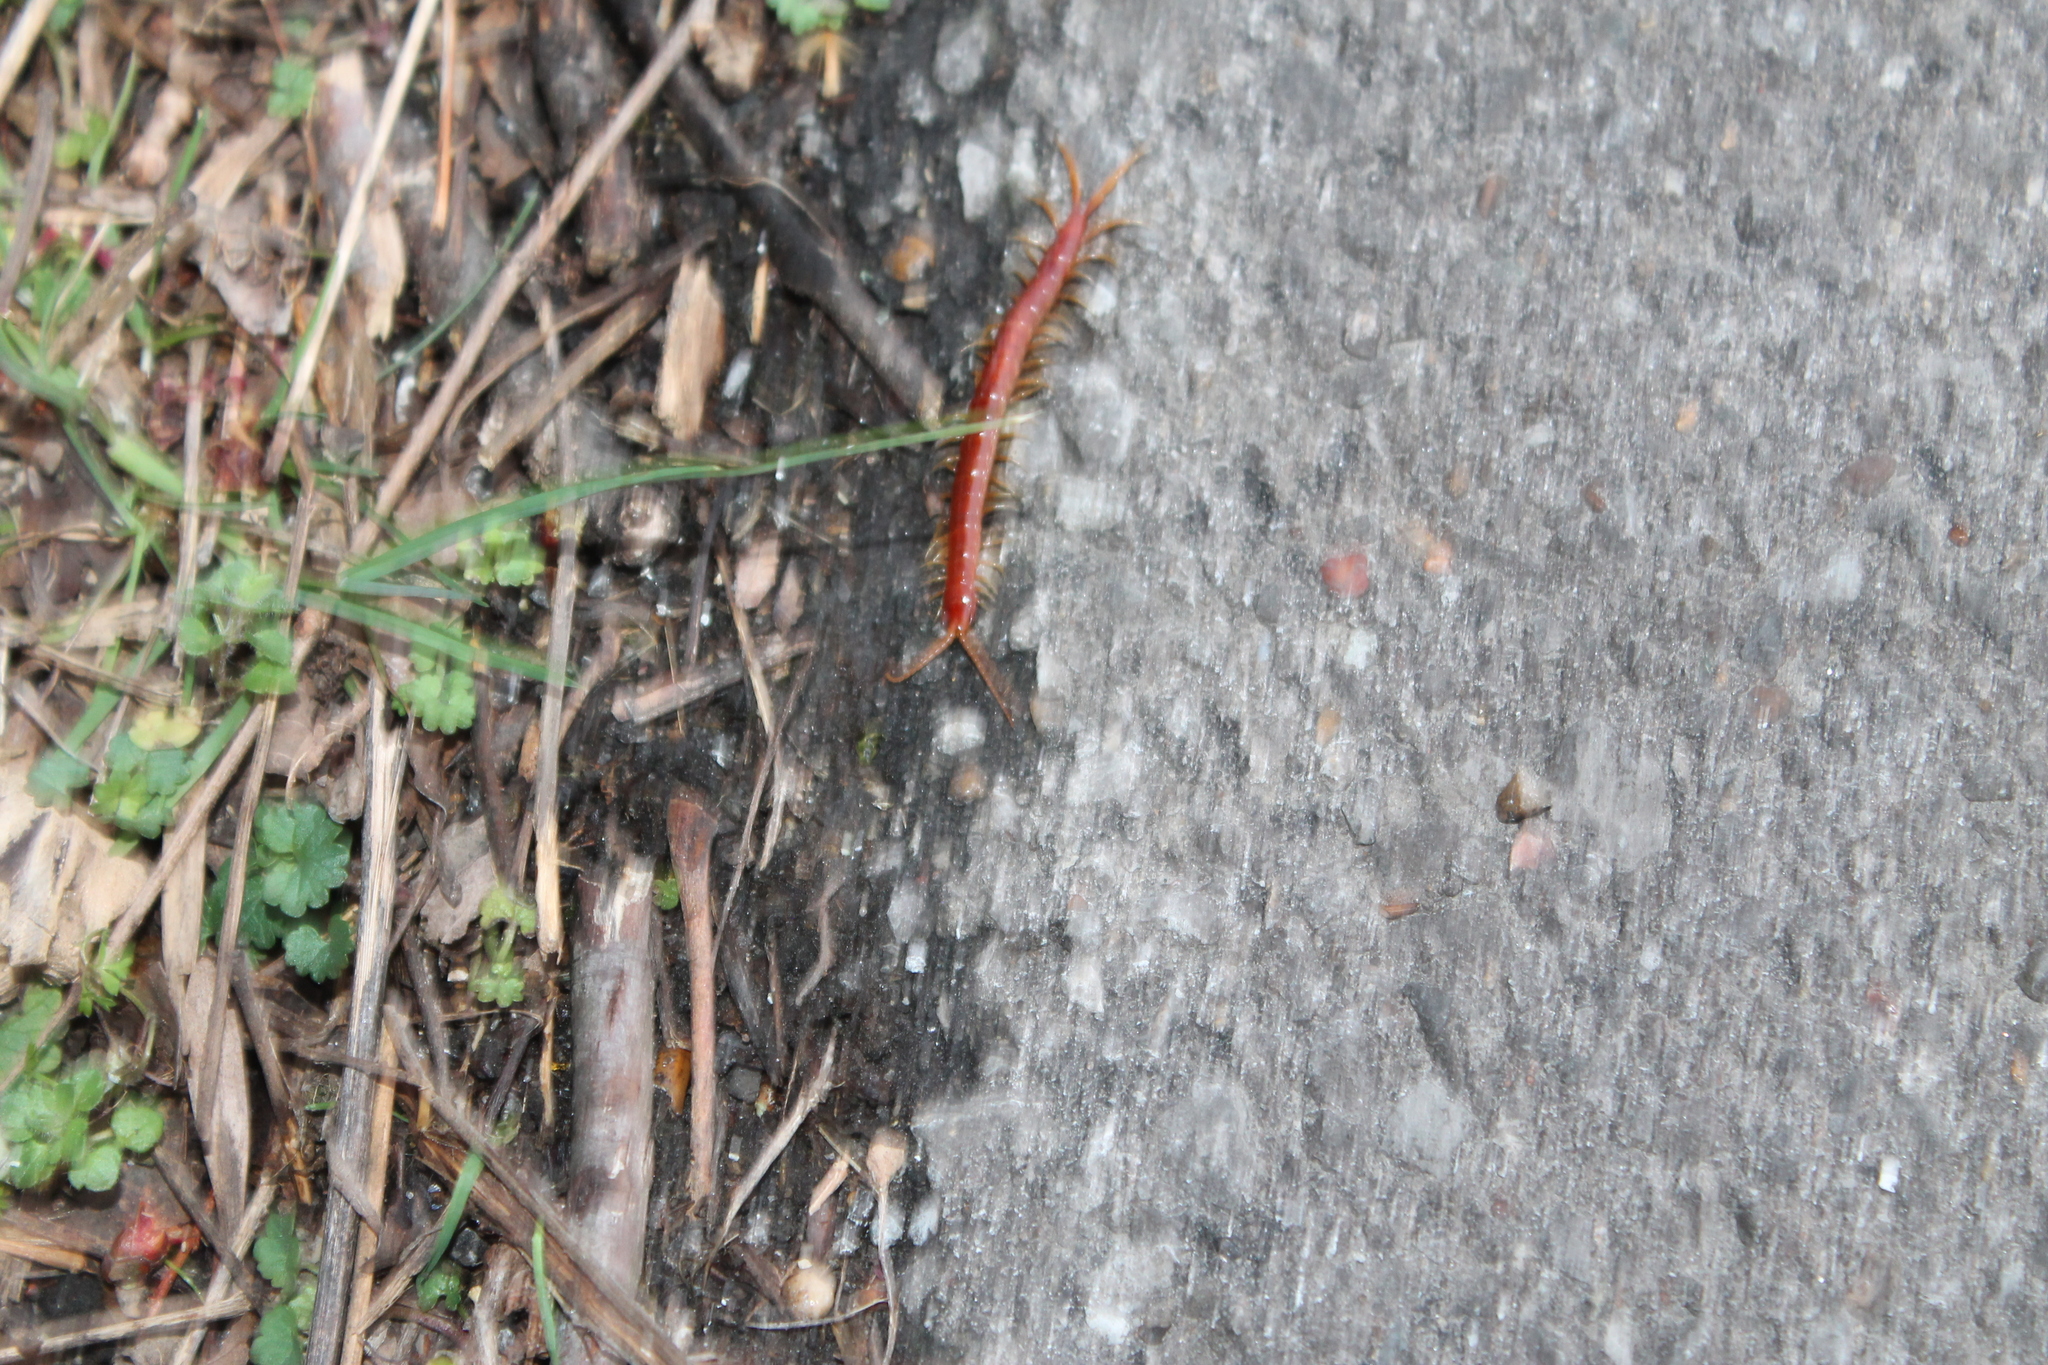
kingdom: Animalia
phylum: Arthropoda
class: Chilopoda
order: Scolopendromorpha
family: Scolopocryptopidae
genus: Scolopocryptops
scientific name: Scolopocryptops sexspinosus
